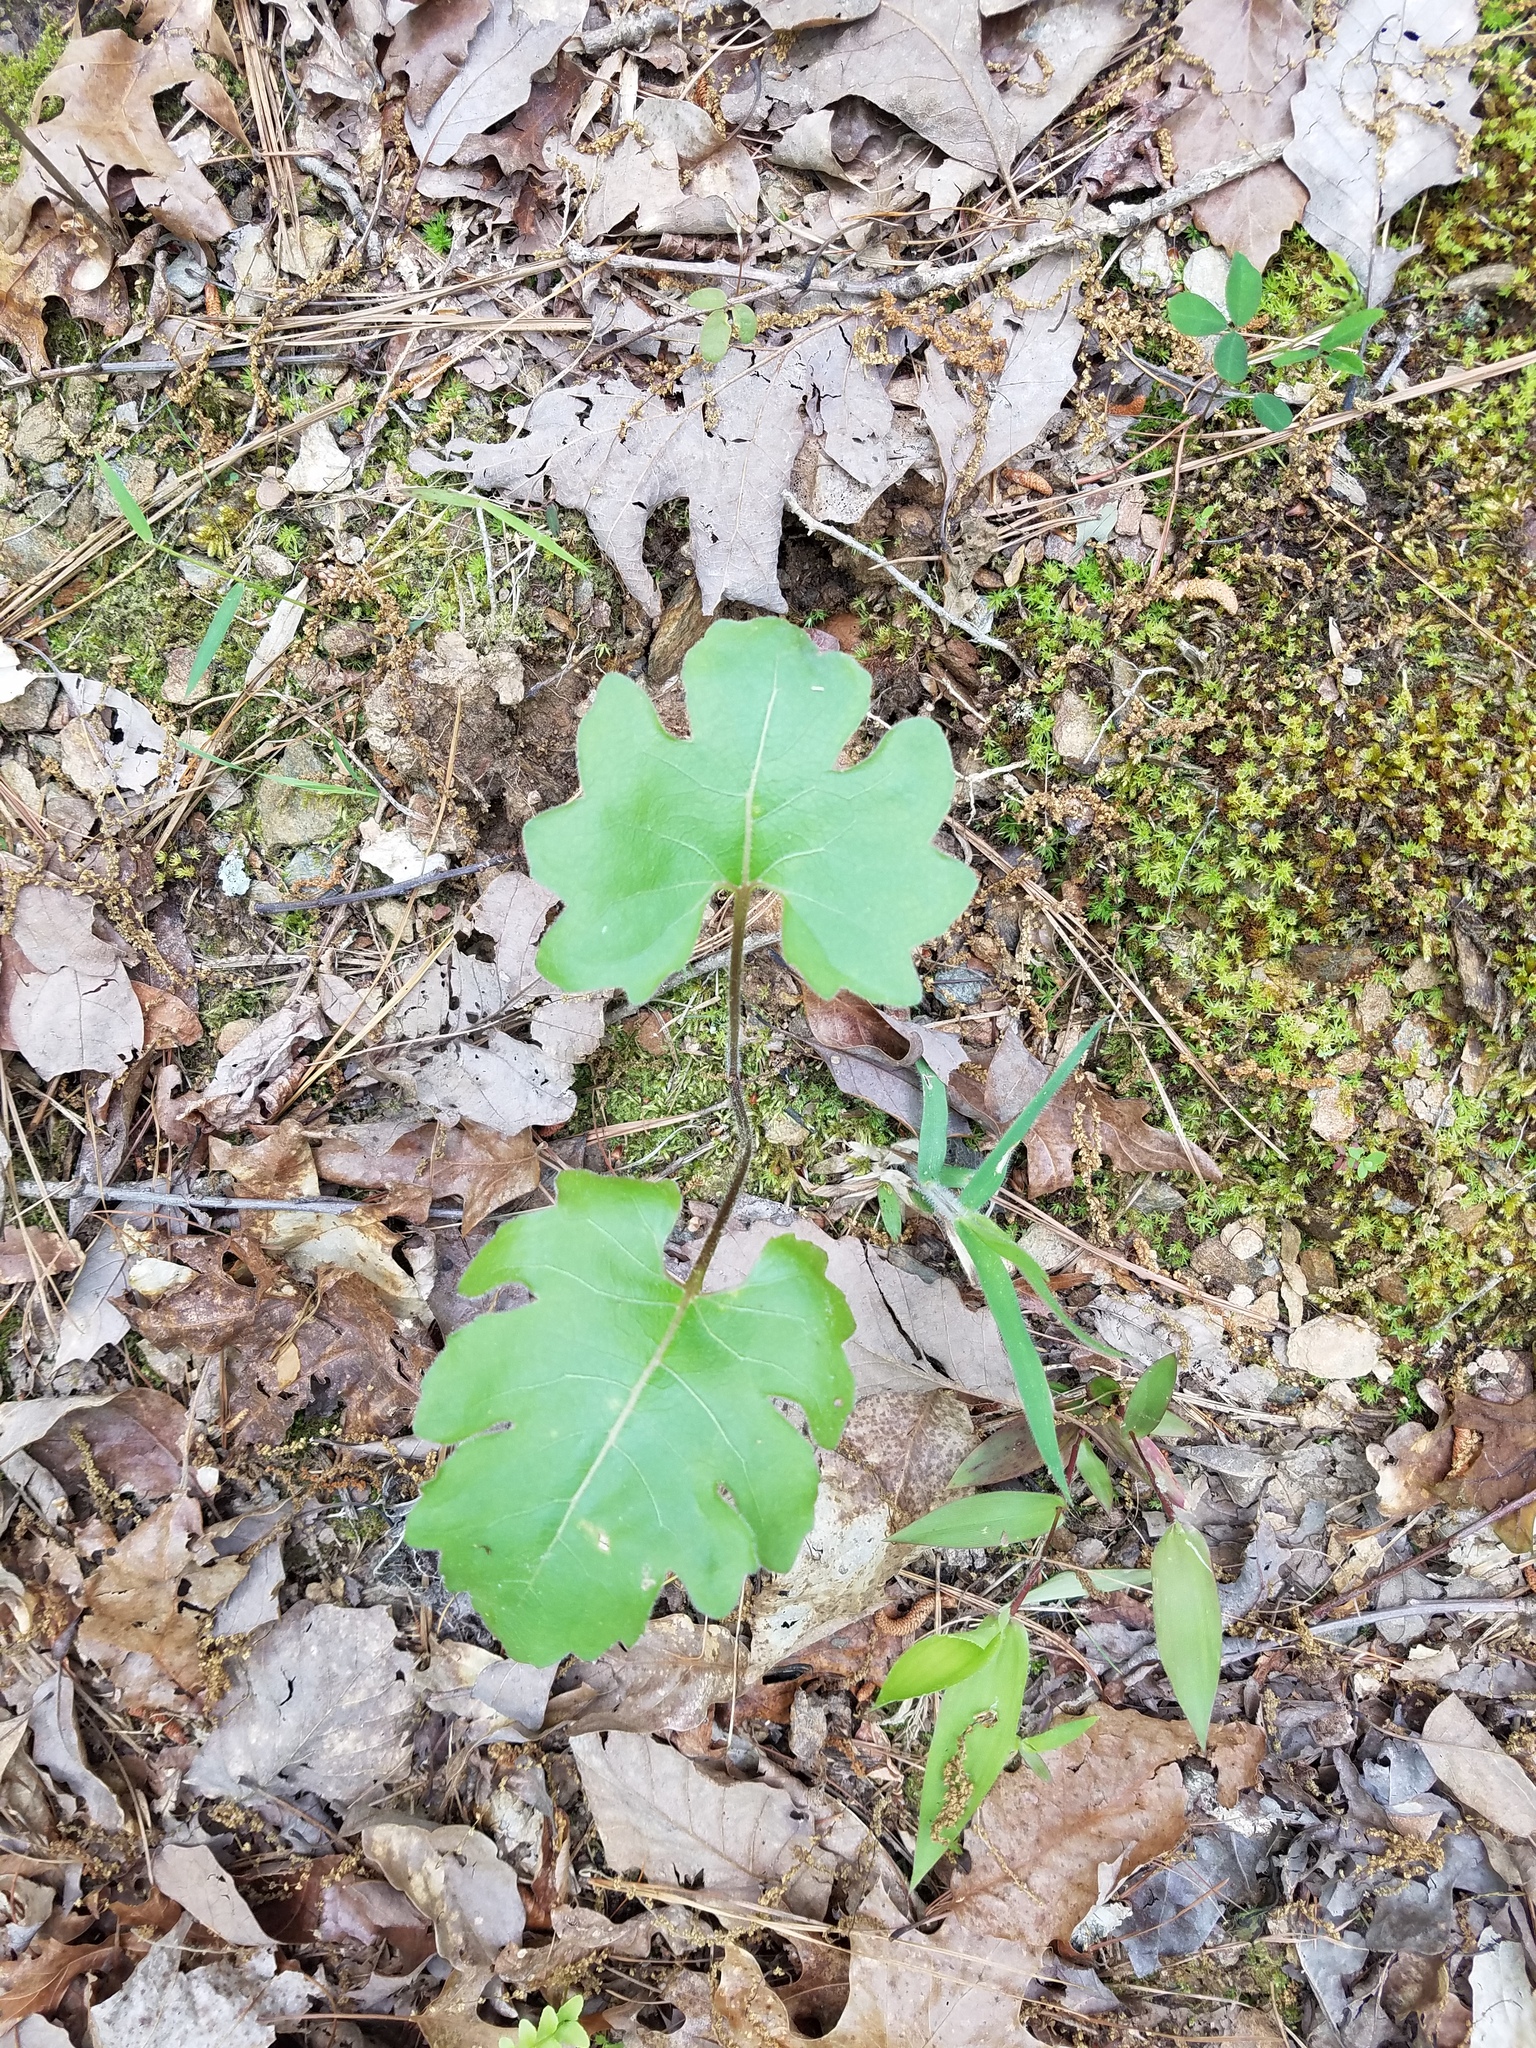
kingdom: Plantae
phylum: Tracheophyta
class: Magnoliopsida
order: Asterales
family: Asteraceae
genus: Silphium
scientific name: Silphium compositum
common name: Lesser basal-leaf rosinweed
